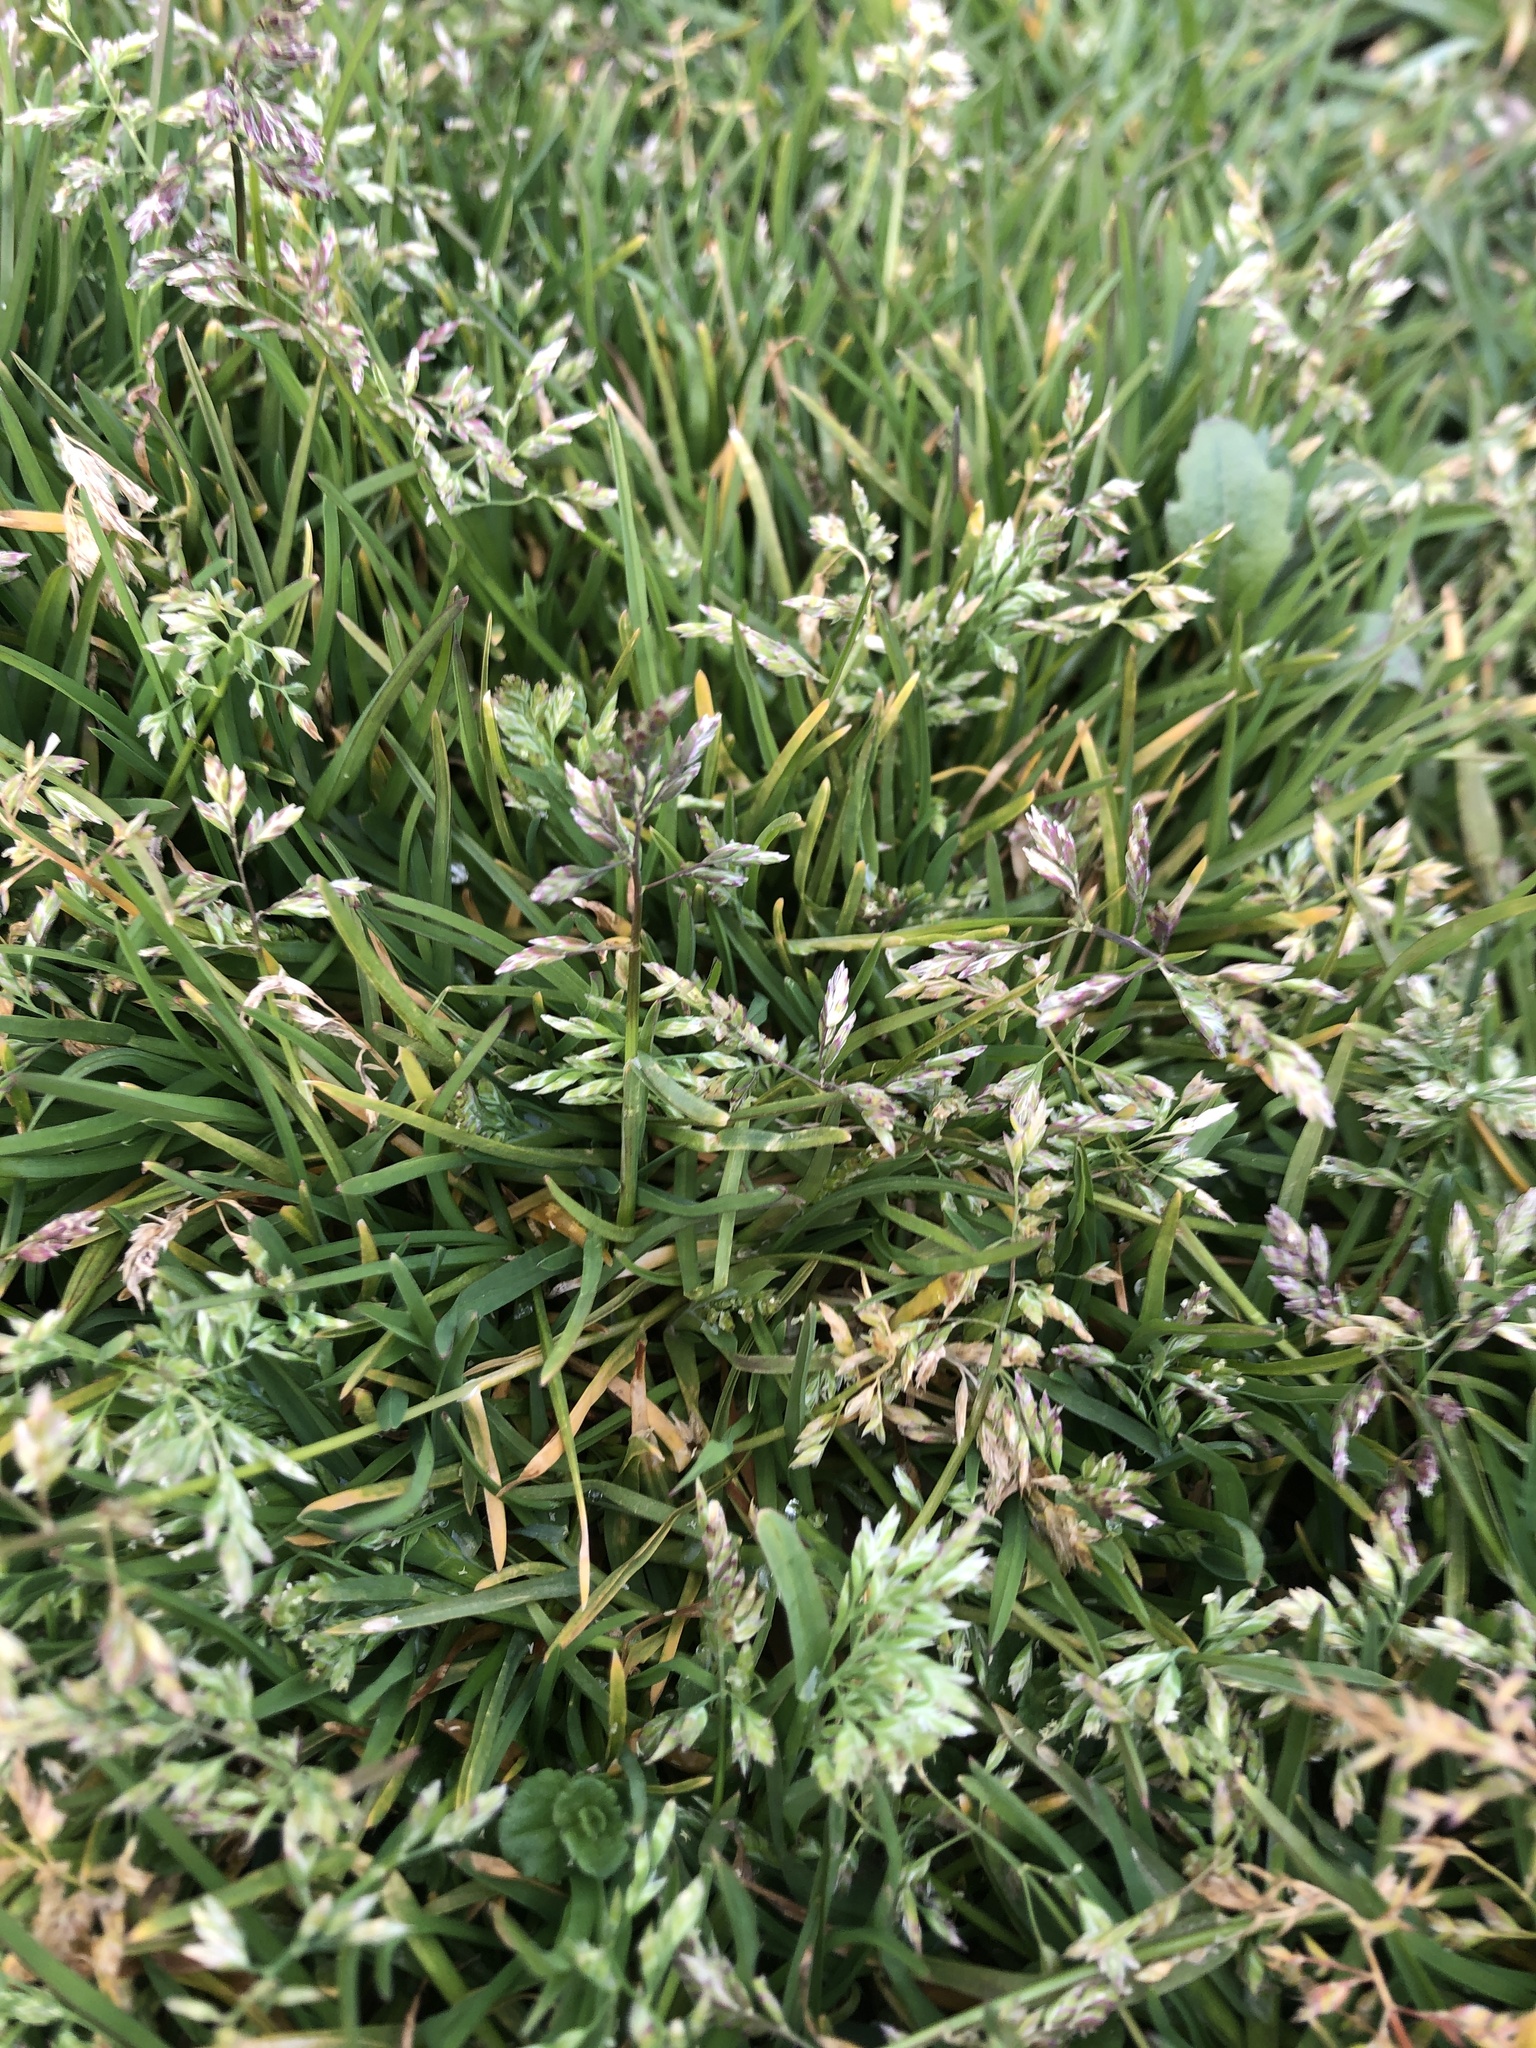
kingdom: Plantae
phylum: Tracheophyta
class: Liliopsida
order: Poales
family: Poaceae
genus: Poa
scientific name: Poa annua
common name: Annual bluegrass
